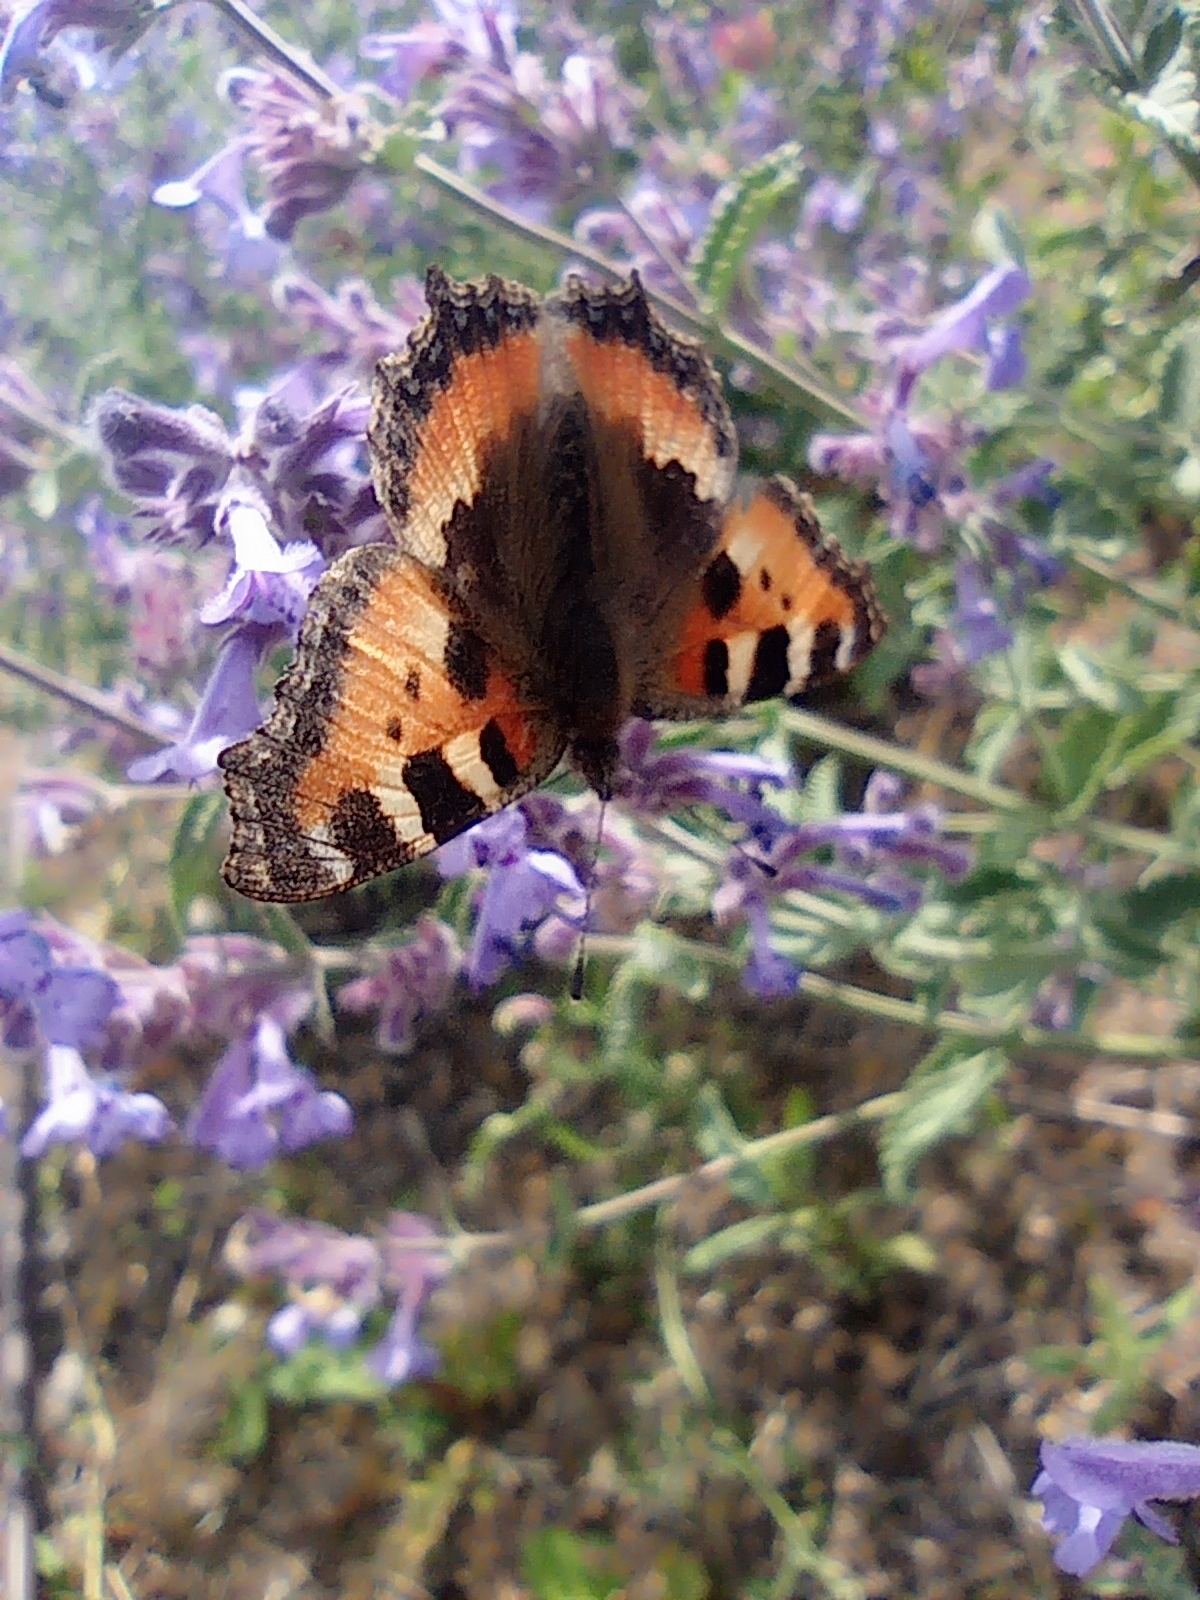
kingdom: Animalia
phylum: Arthropoda
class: Insecta
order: Lepidoptera
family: Nymphalidae
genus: Aglais
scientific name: Aglais urticae
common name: Small tortoiseshell
